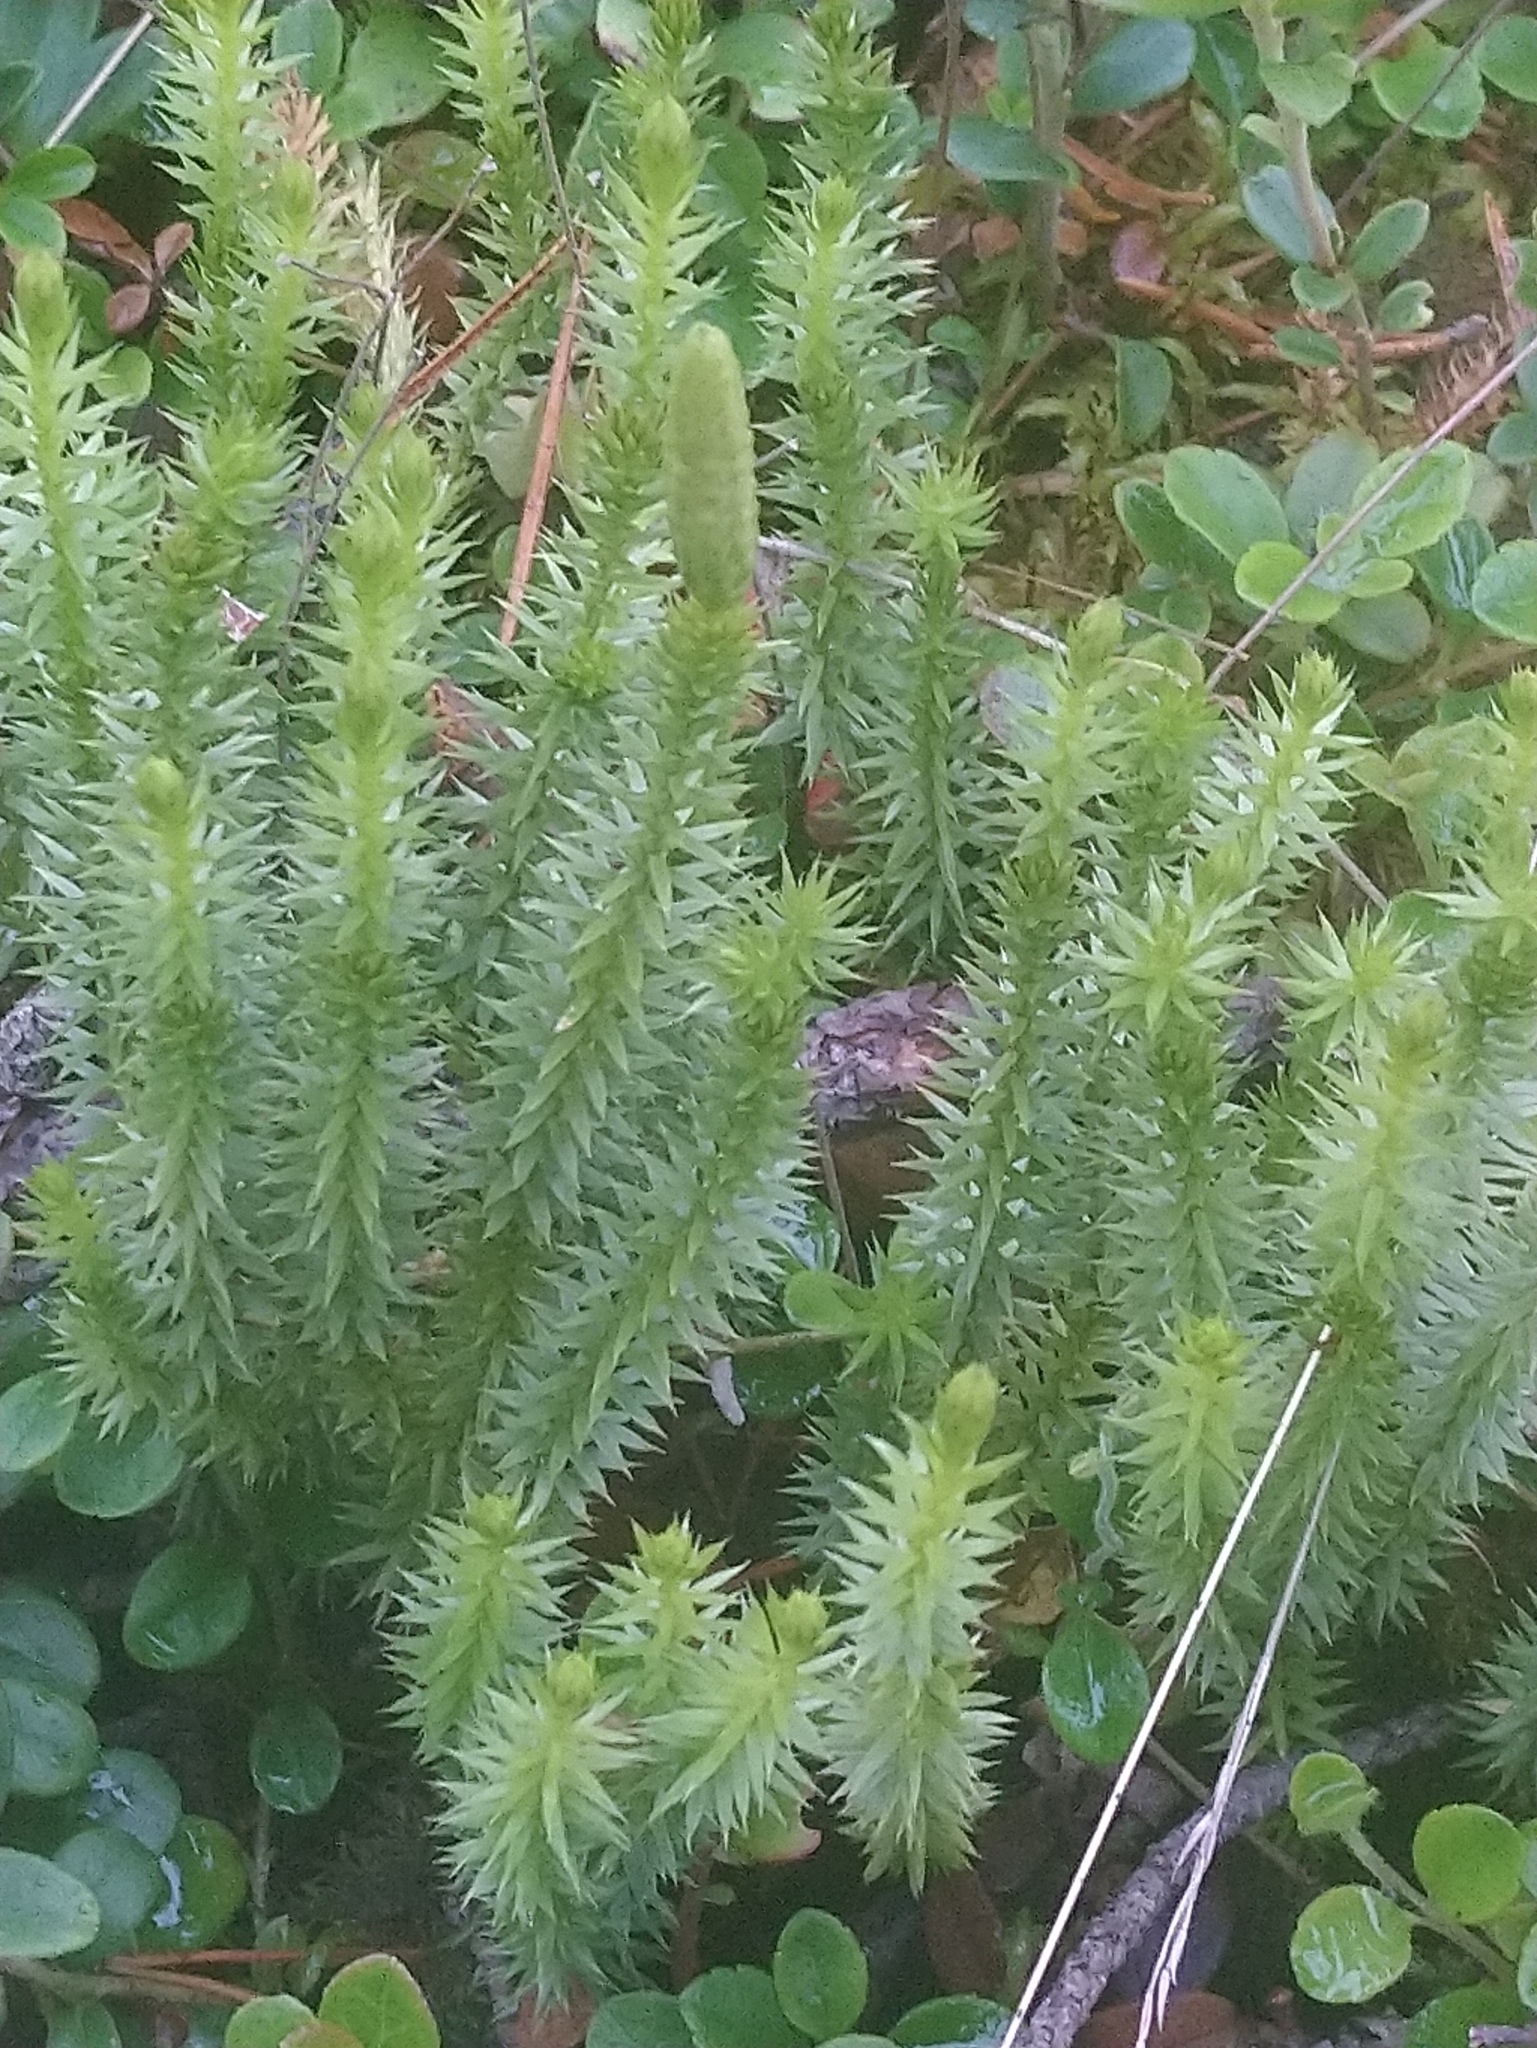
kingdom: Plantae
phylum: Tracheophyta
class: Lycopodiopsida
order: Lycopodiales
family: Lycopodiaceae
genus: Spinulum
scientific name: Spinulum annotinum
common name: Interrupted club-moss
